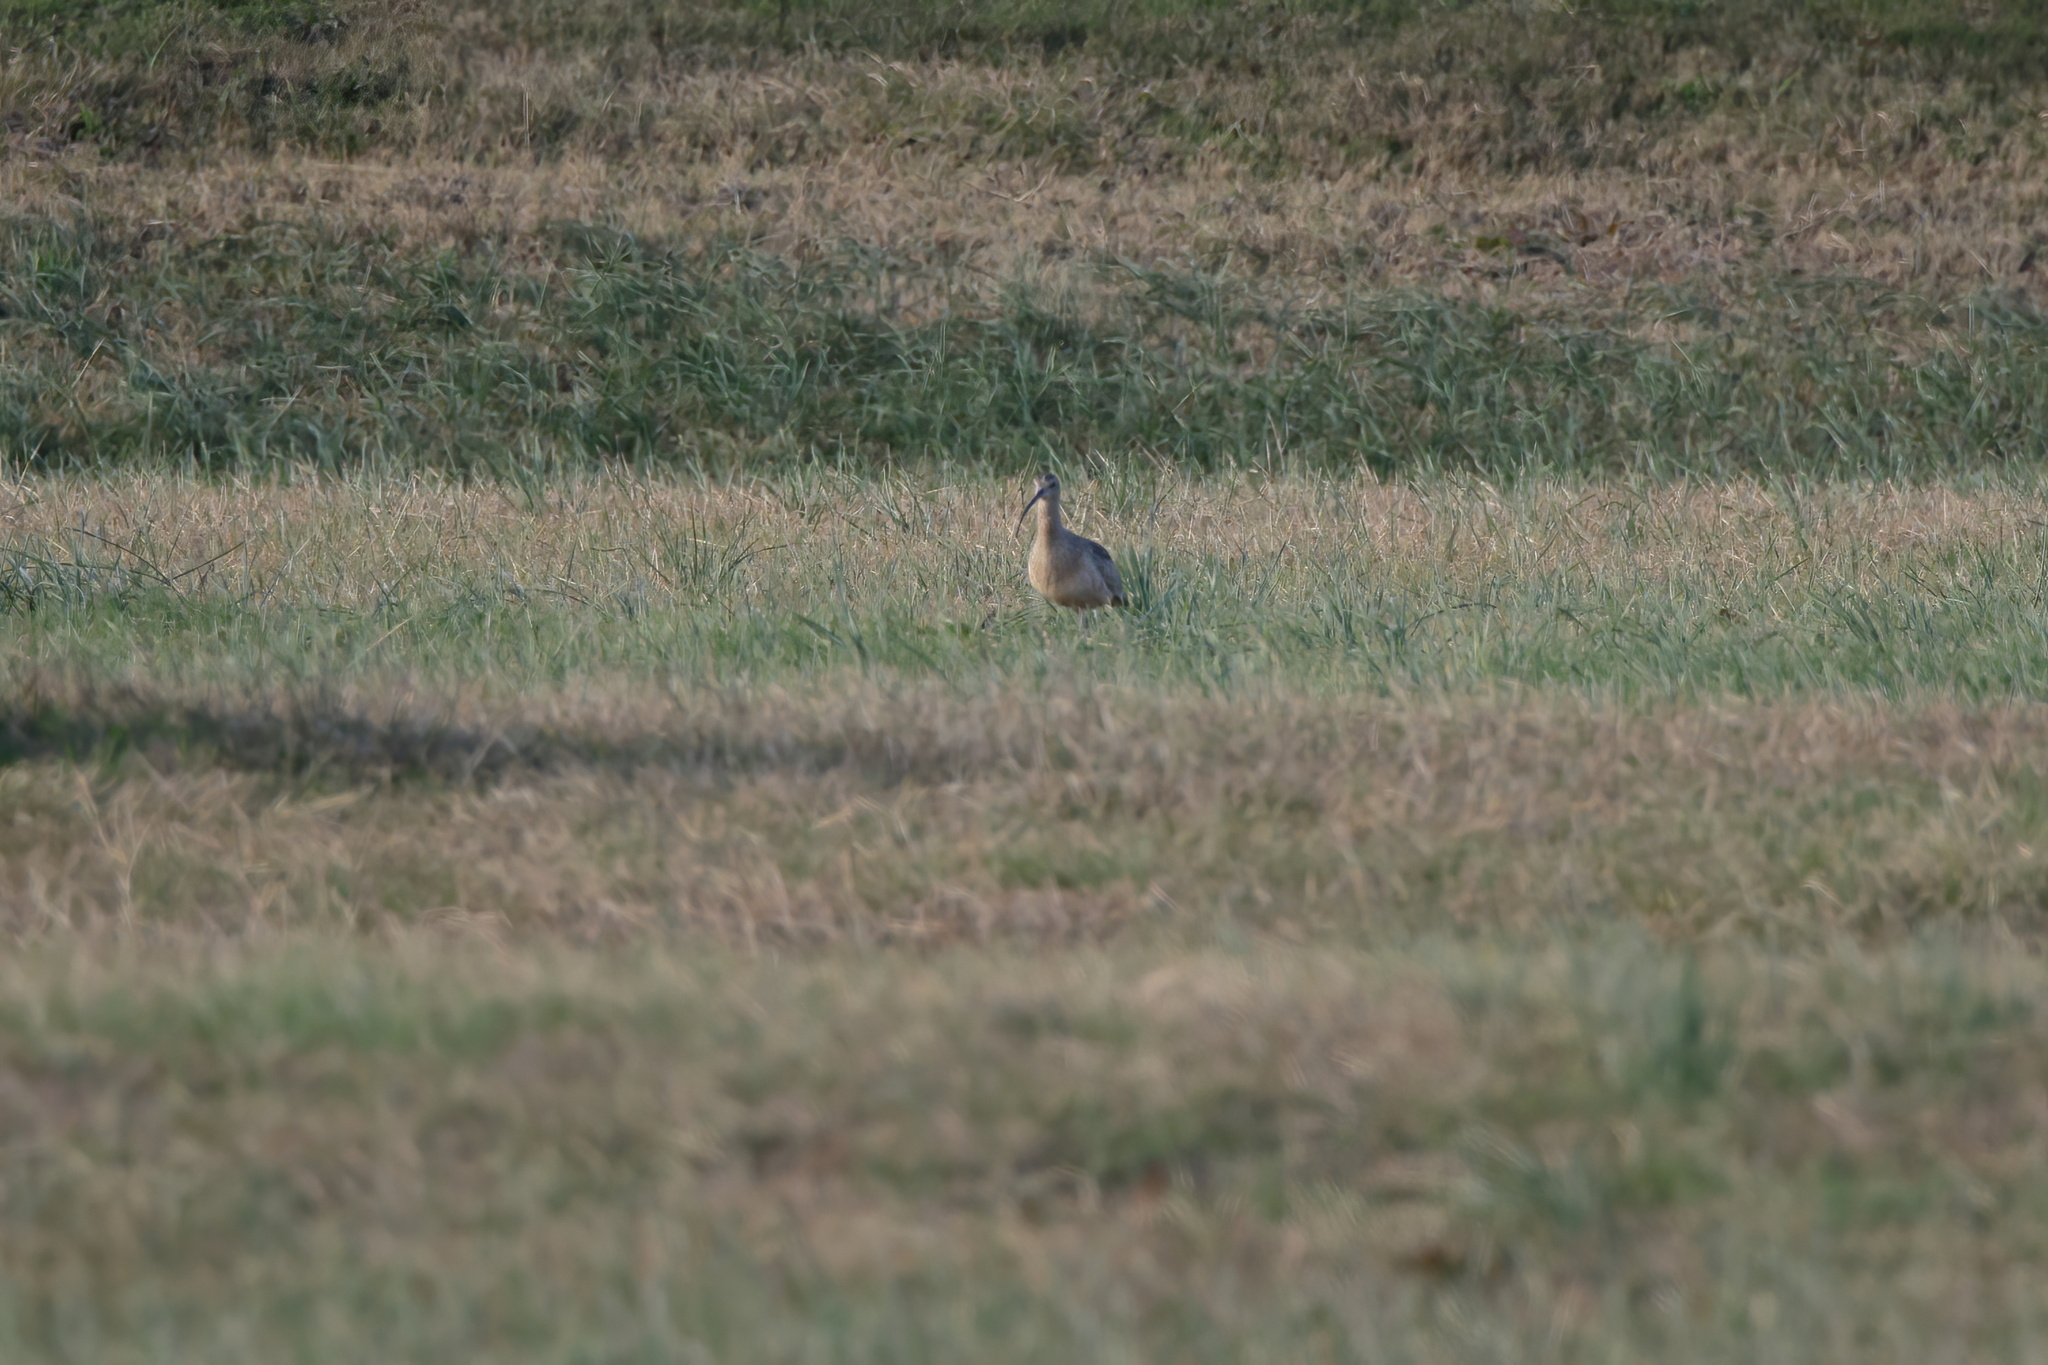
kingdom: Animalia
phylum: Chordata
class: Aves
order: Charadriiformes
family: Scolopacidae
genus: Numenius
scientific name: Numenius americanus
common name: Long-billed curlew
